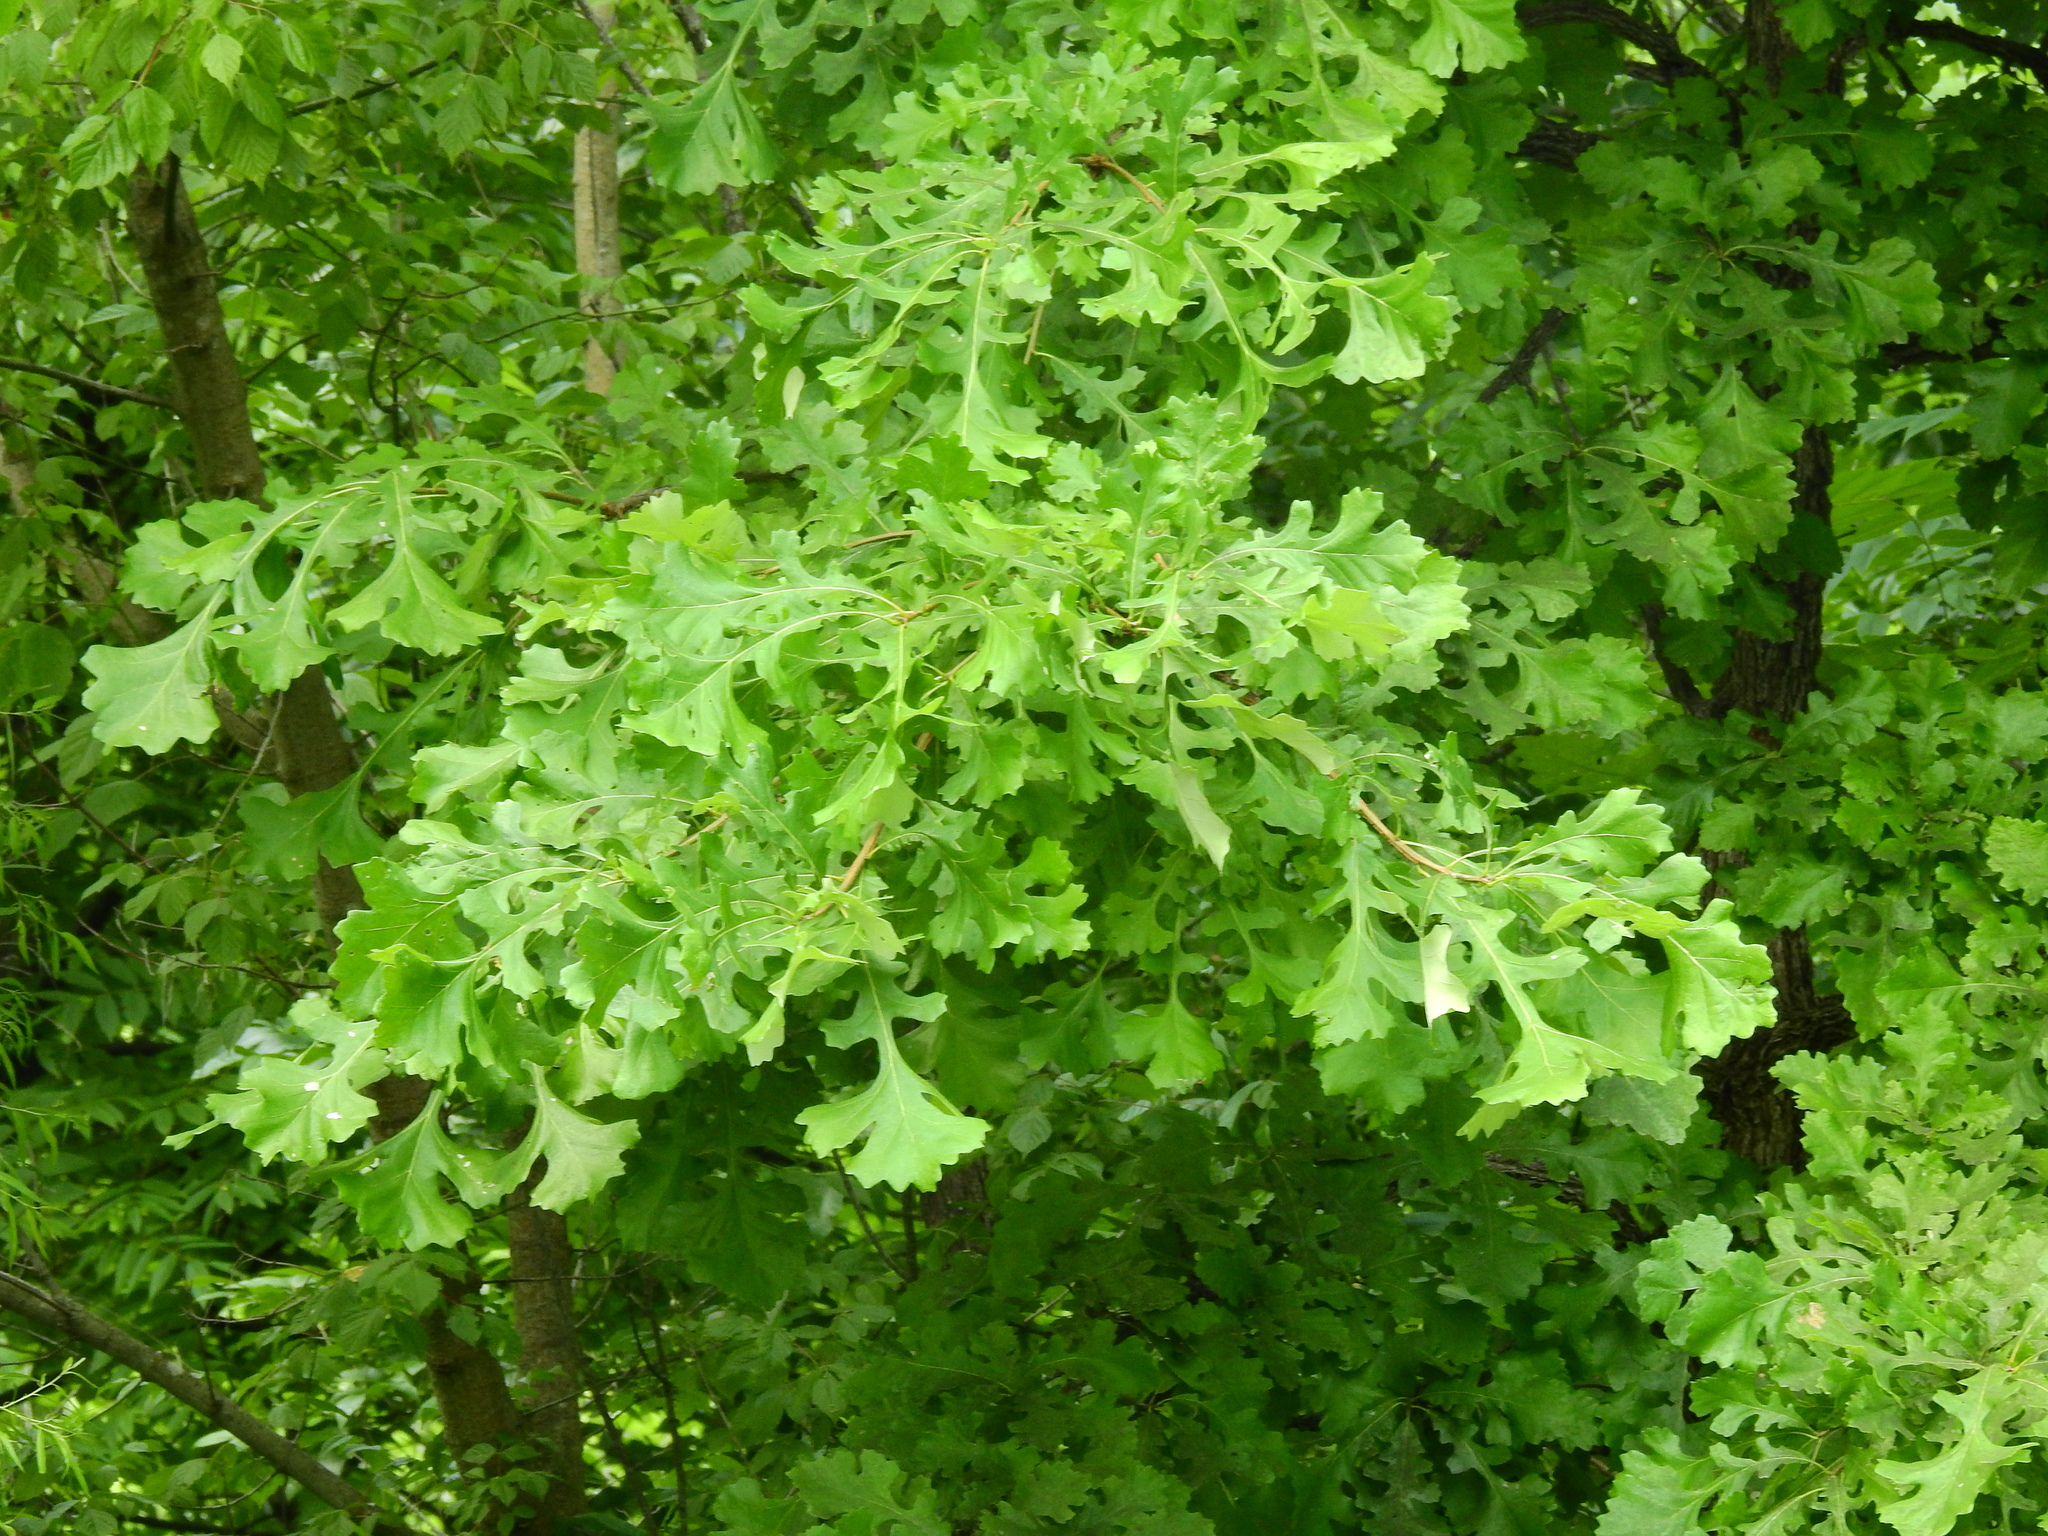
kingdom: Plantae
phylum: Tracheophyta
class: Magnoliopsida
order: Fagales
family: Fagaceae
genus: Quercus
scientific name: Quercus macrocarpa
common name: Bur oak
